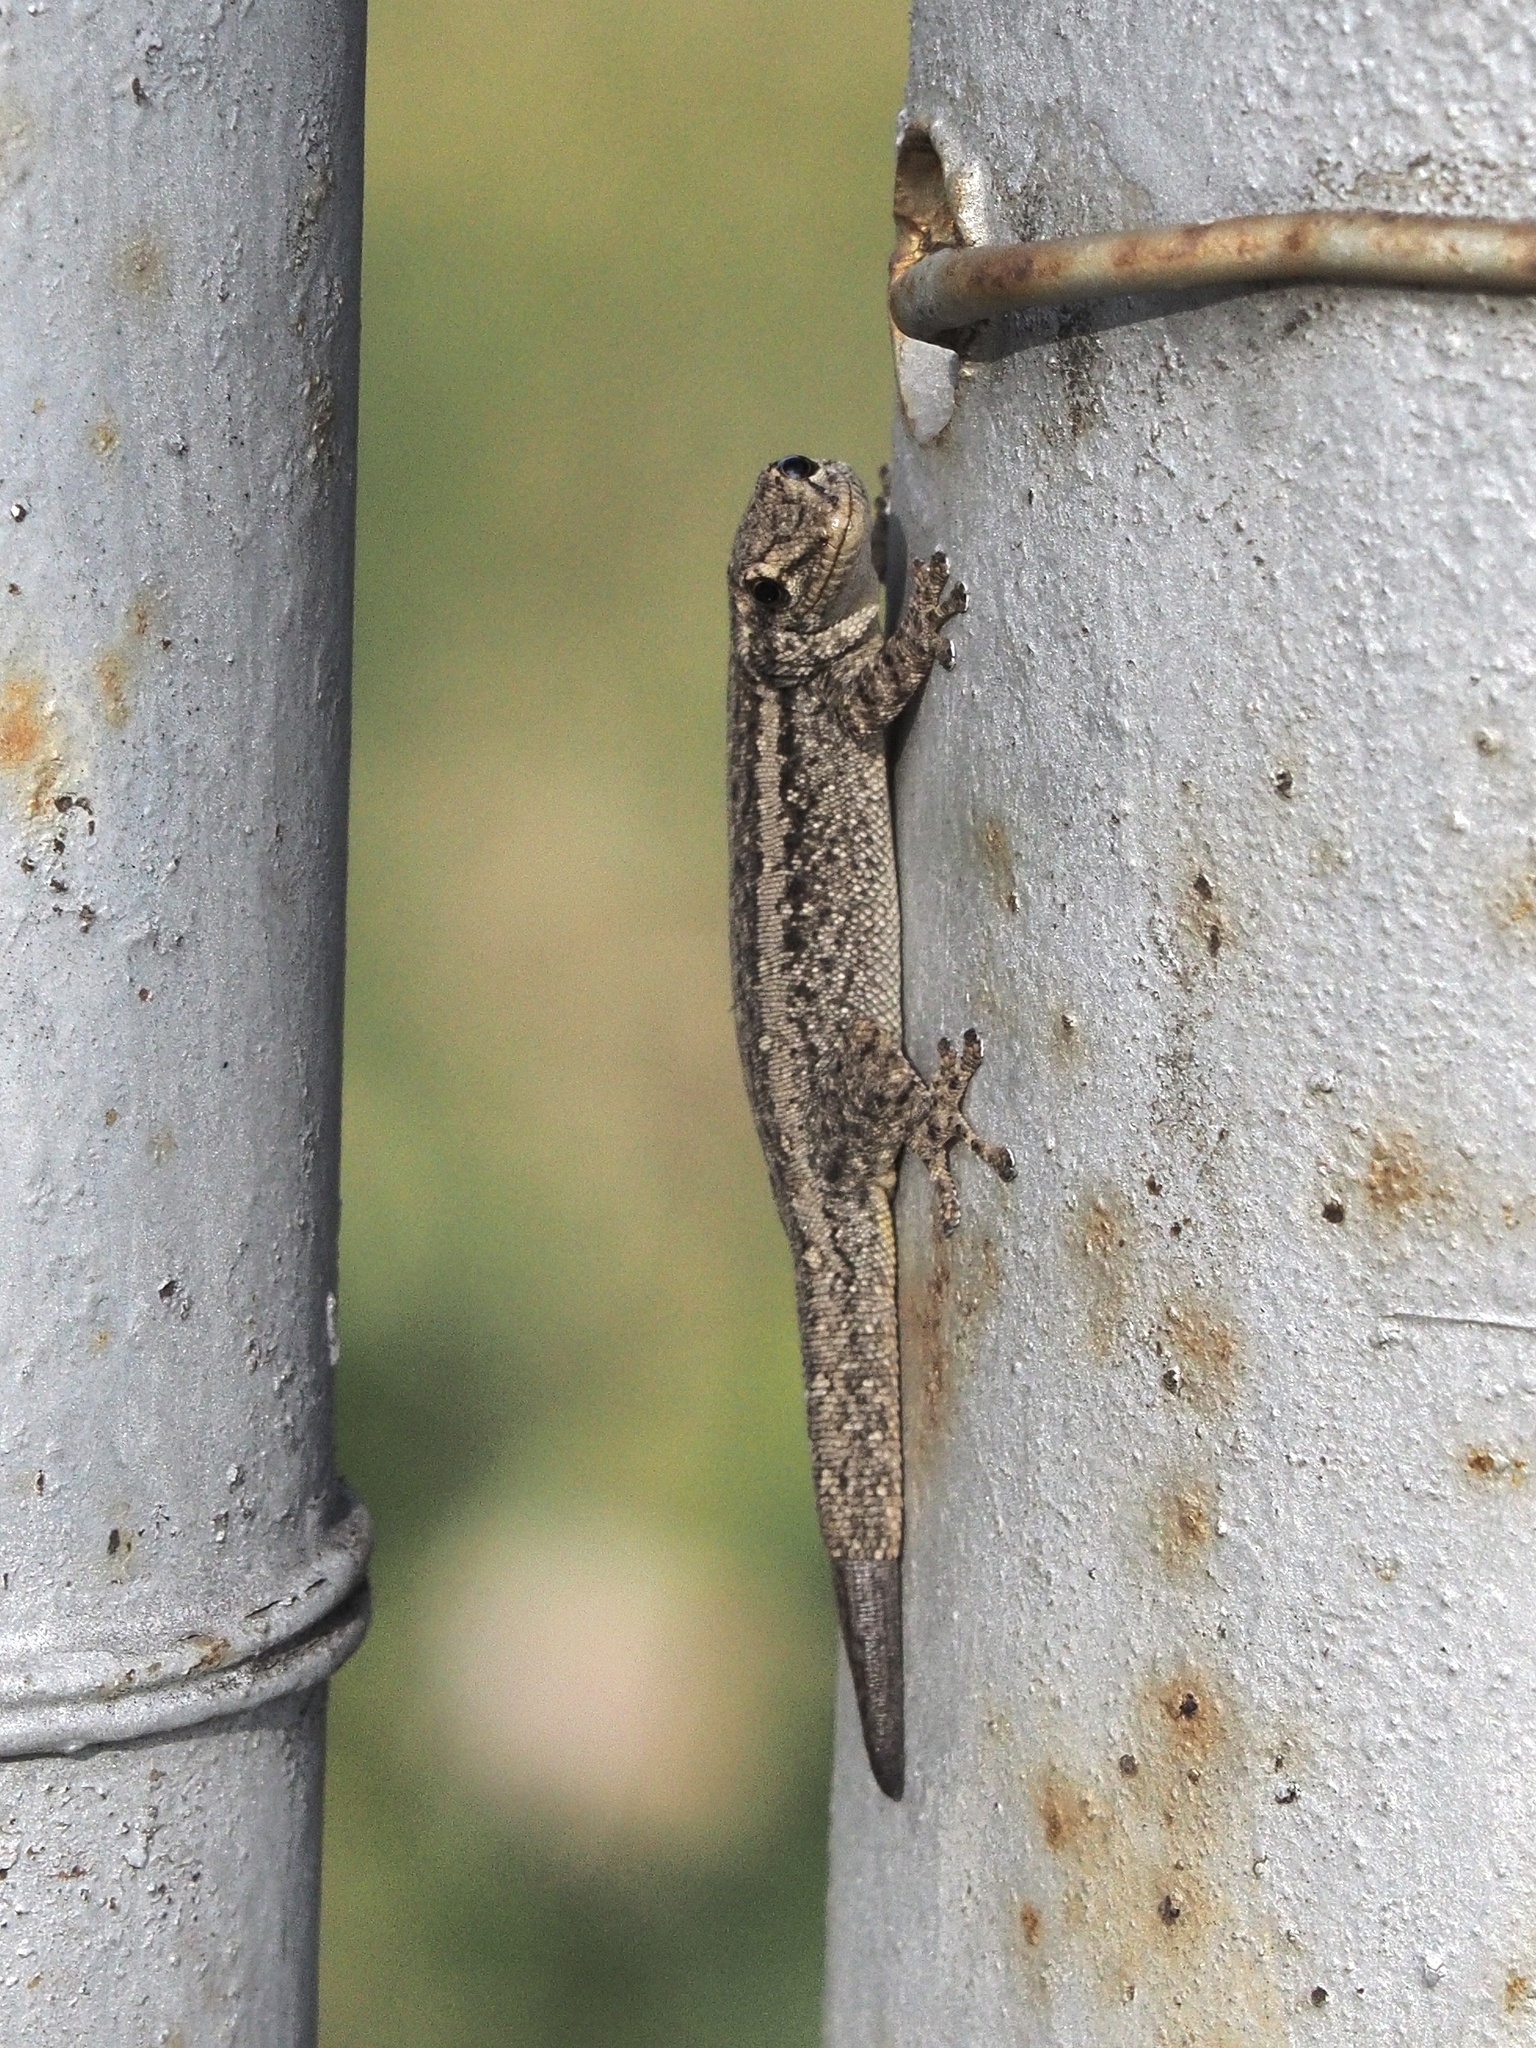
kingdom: Animalia
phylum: Chordata
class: Squamata
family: Gekkonidae
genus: Lygodactylus
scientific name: Lygodactylus capensis
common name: Cape dwarf gecko
